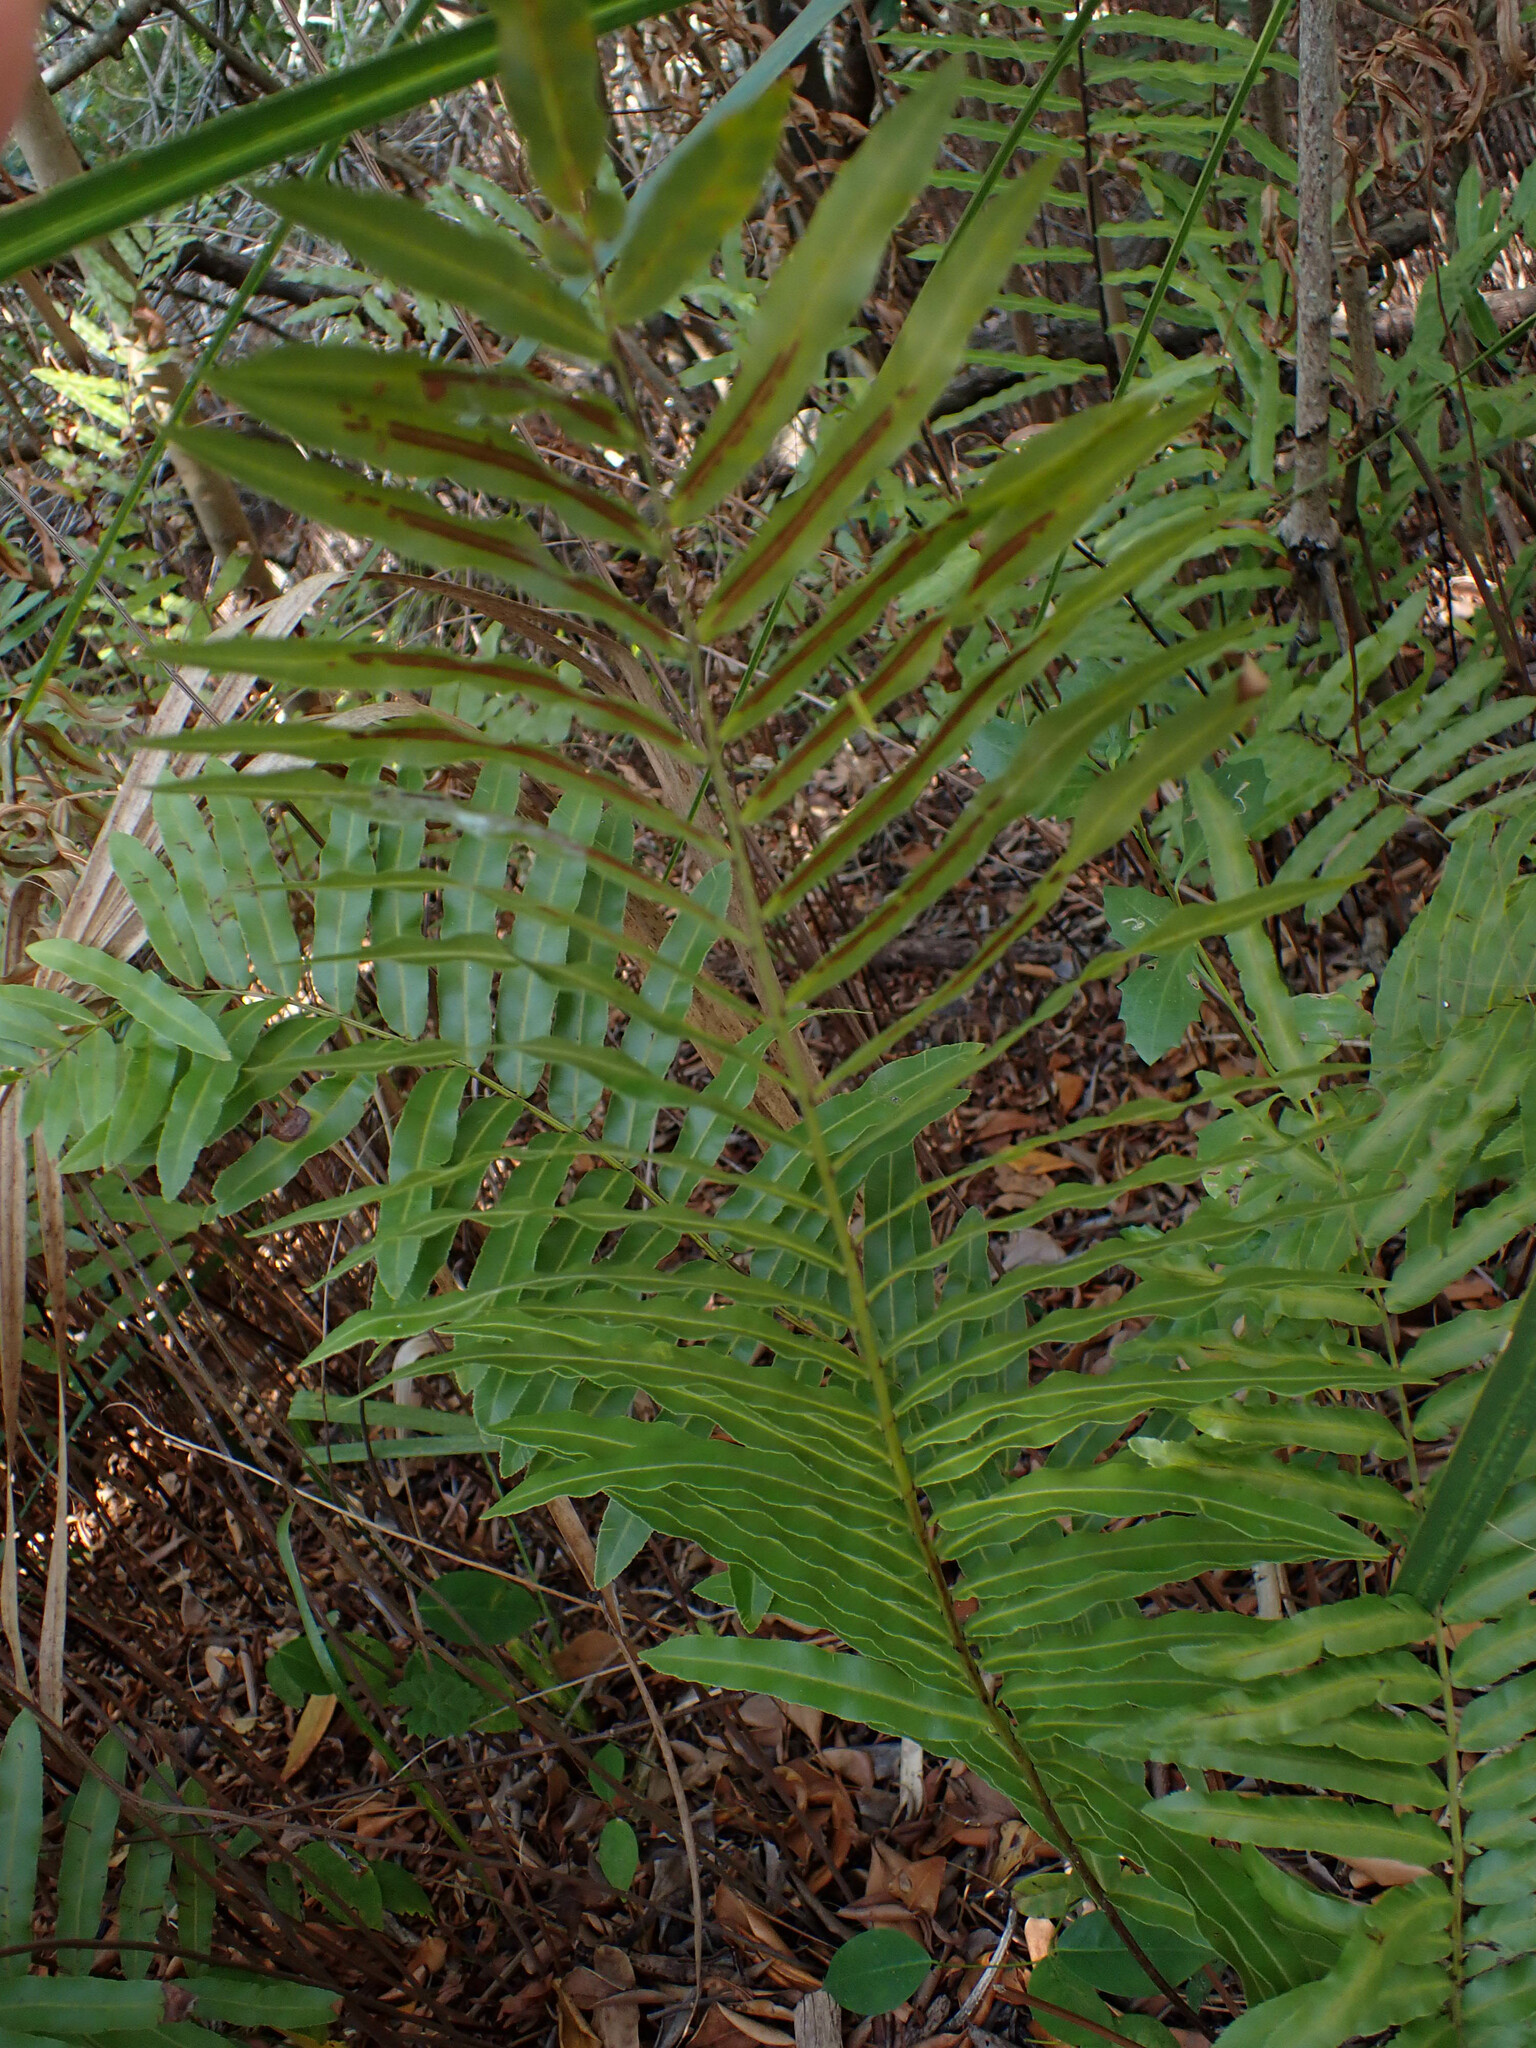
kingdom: Plantae
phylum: Tracheophyta
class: Polypodiopsida
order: Polypodiales
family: Blechnaceae
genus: Telmatoblechnum
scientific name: Telmatoblechnum serrulatum
